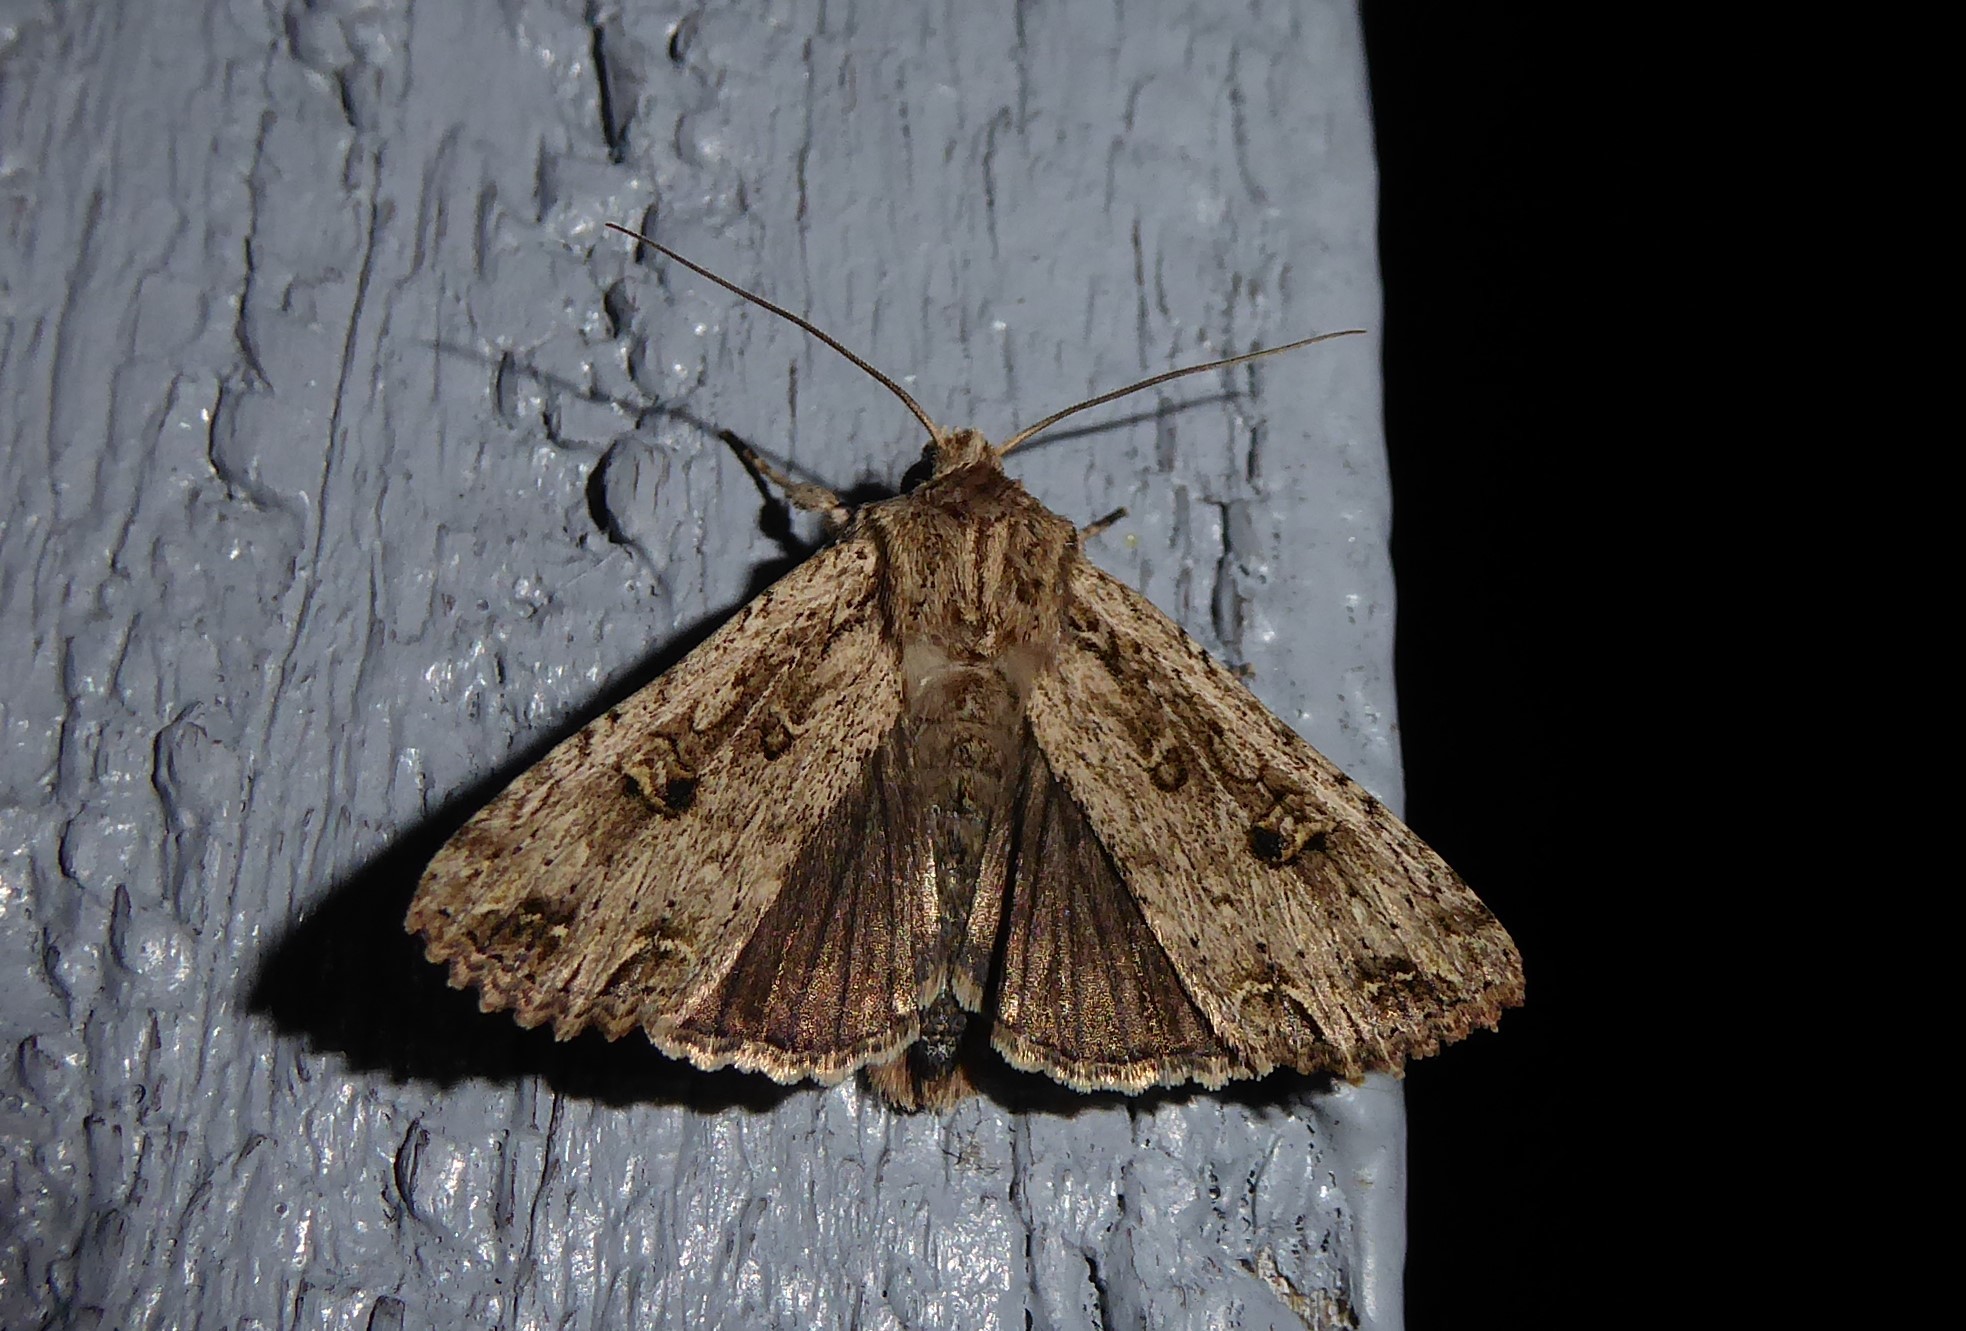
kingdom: Animalia
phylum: Arthropoda
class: Insecta
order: Lepidoptera
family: Noctuidae
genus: Ichneutica
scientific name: Ichneutica lignana
